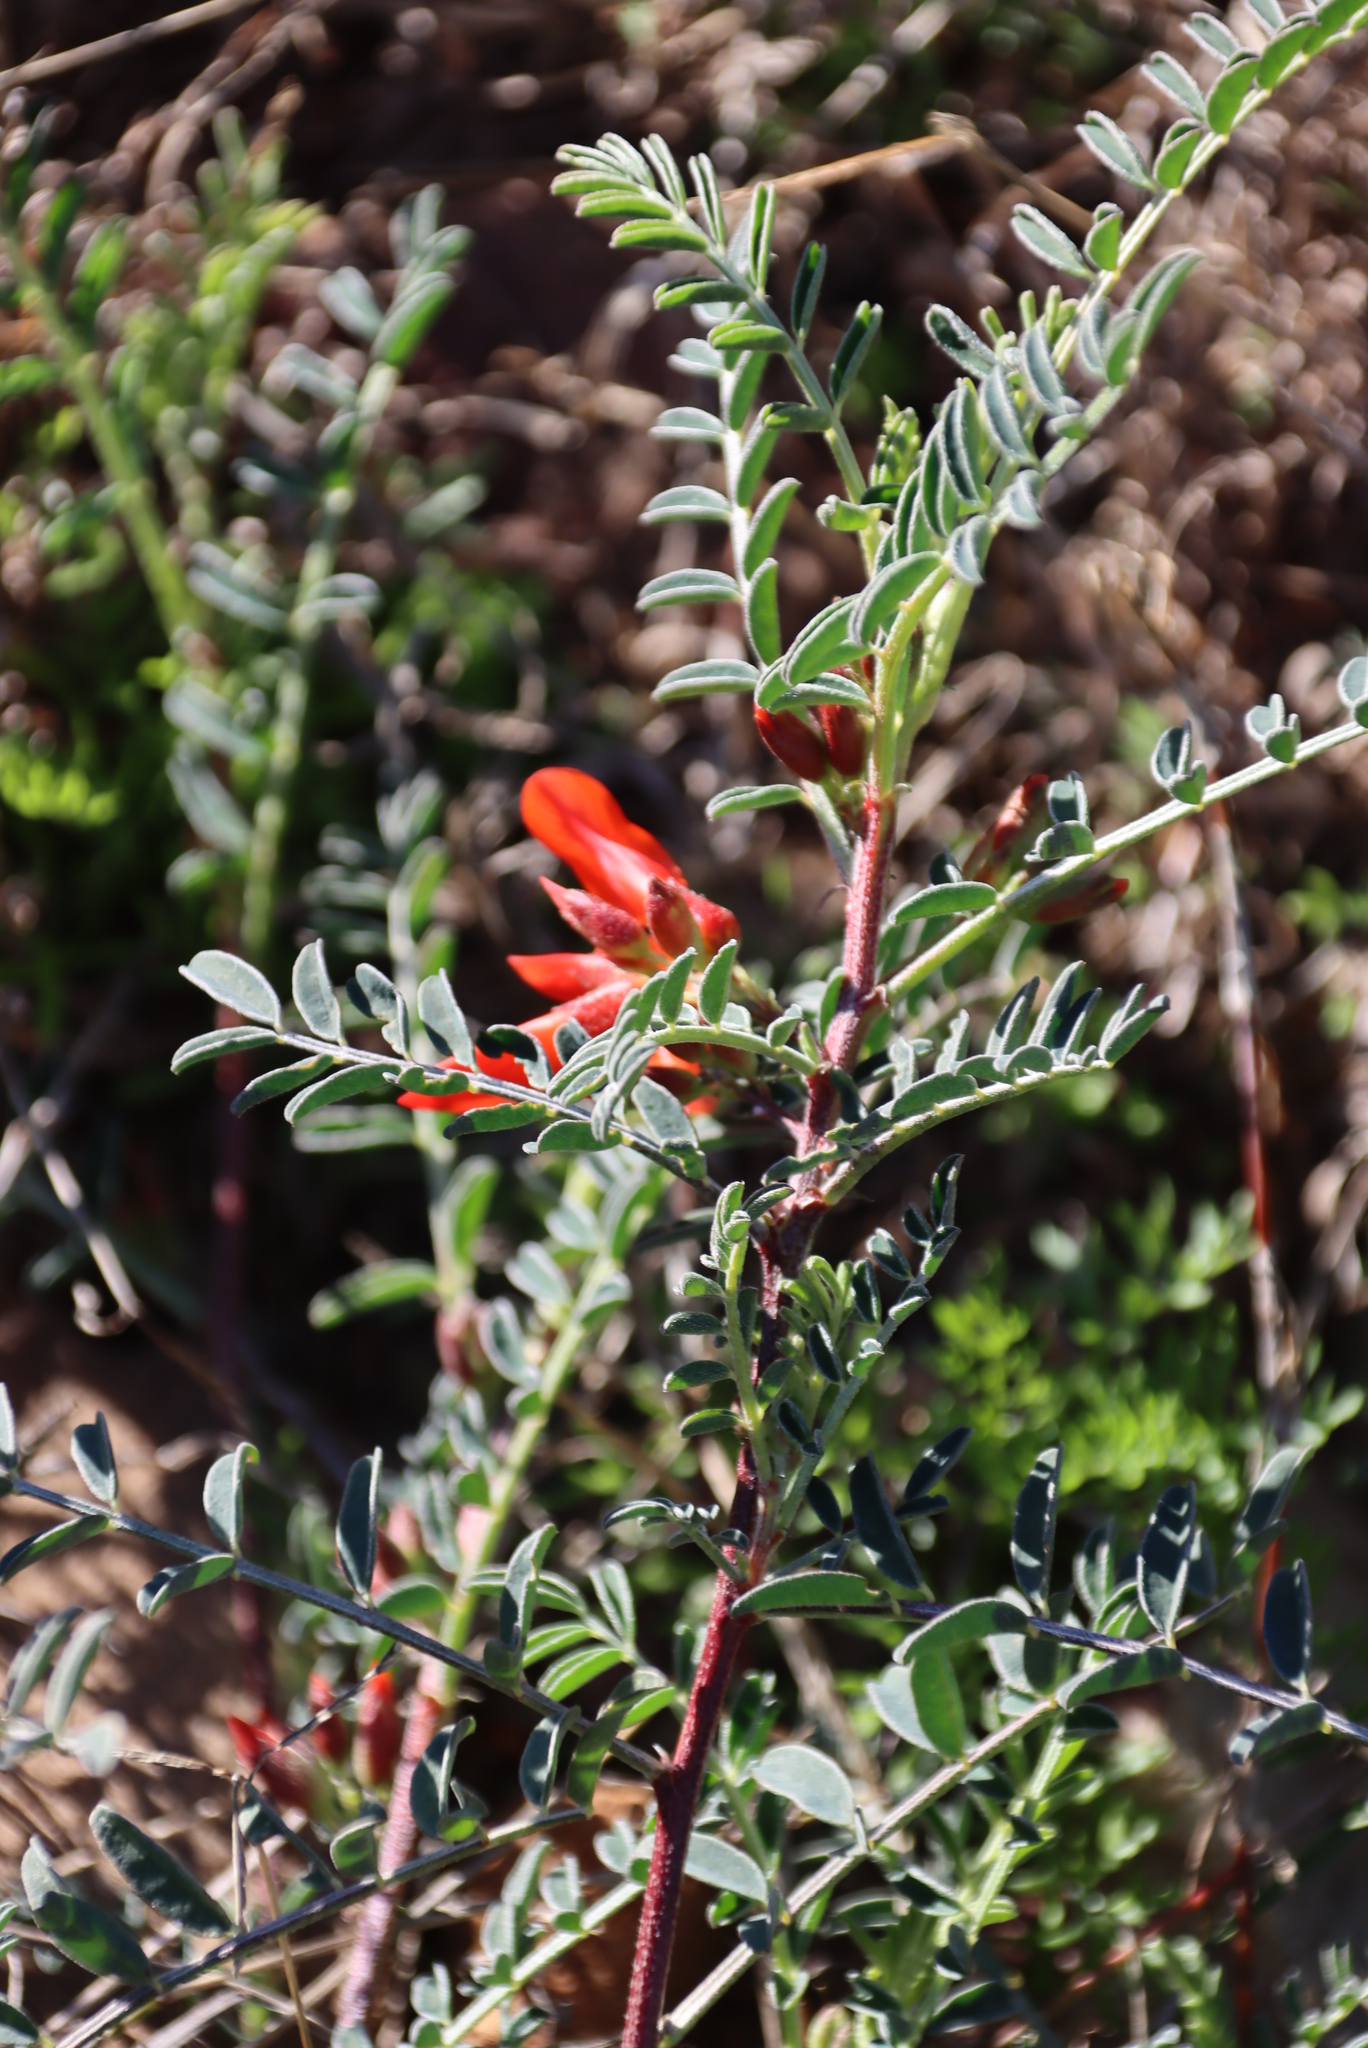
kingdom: Plantae
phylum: Tracheophyta
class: Magnoliopsida
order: Fabales
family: Fabaceae
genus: Lessertia
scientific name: Lessertia frutescens
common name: Balloon-pea
